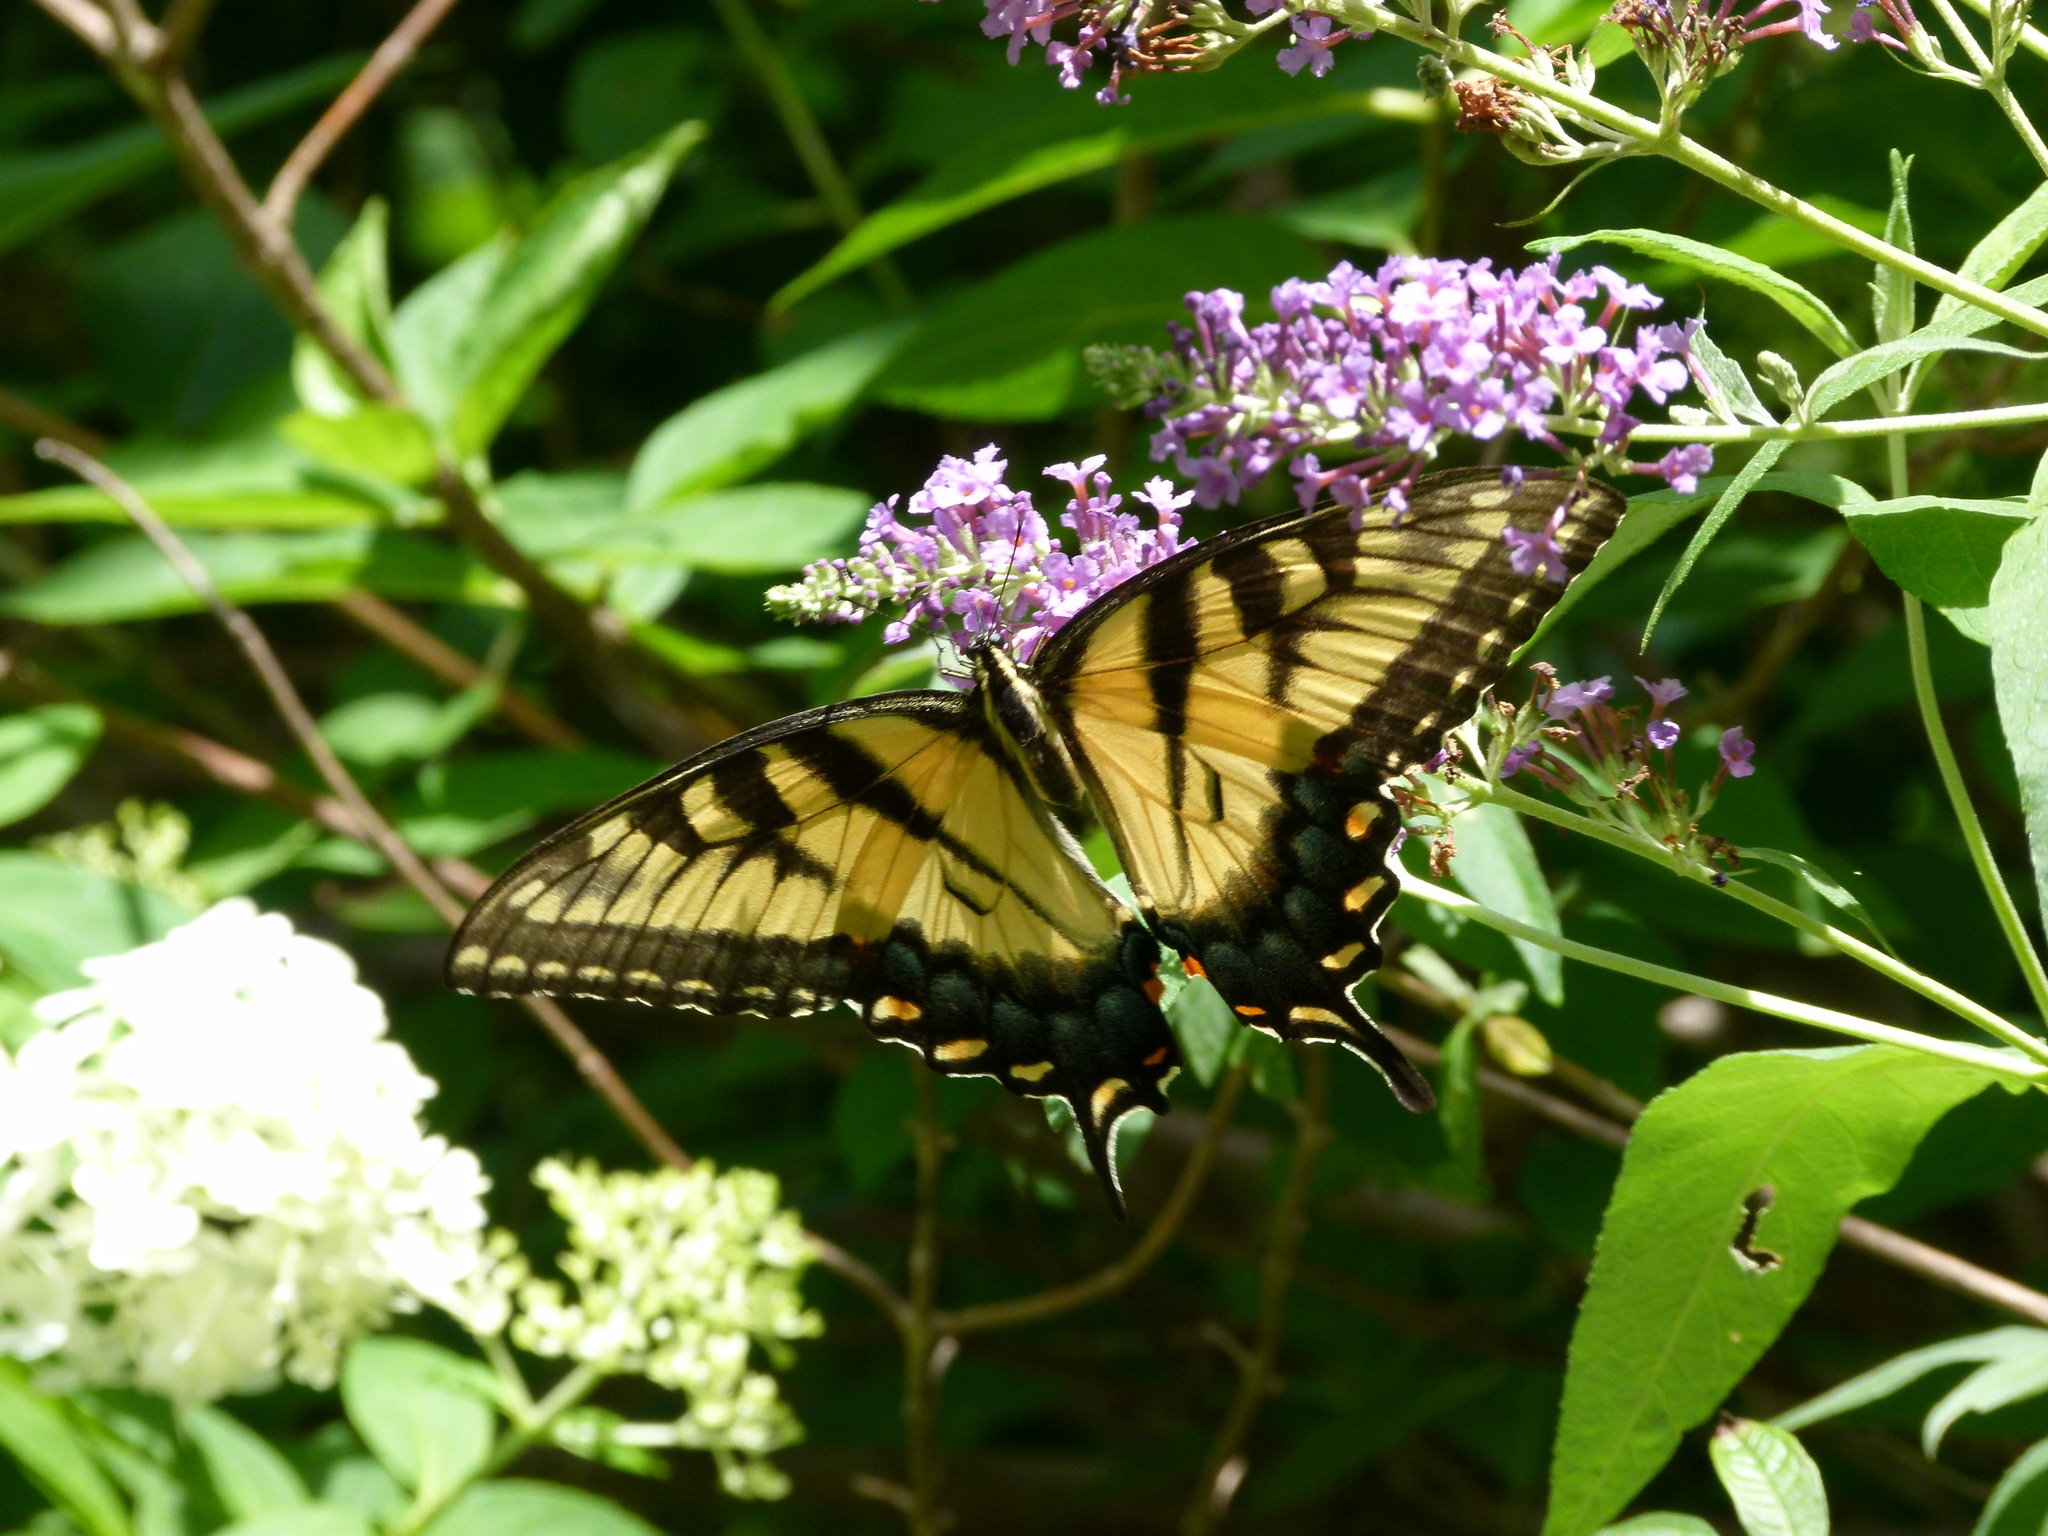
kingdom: Animalia
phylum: Arthropoda
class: Insecta
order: Lepidoptera
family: Papilionidae
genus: Papilio
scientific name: Papilio glaucus
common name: Tiger swallowtail
